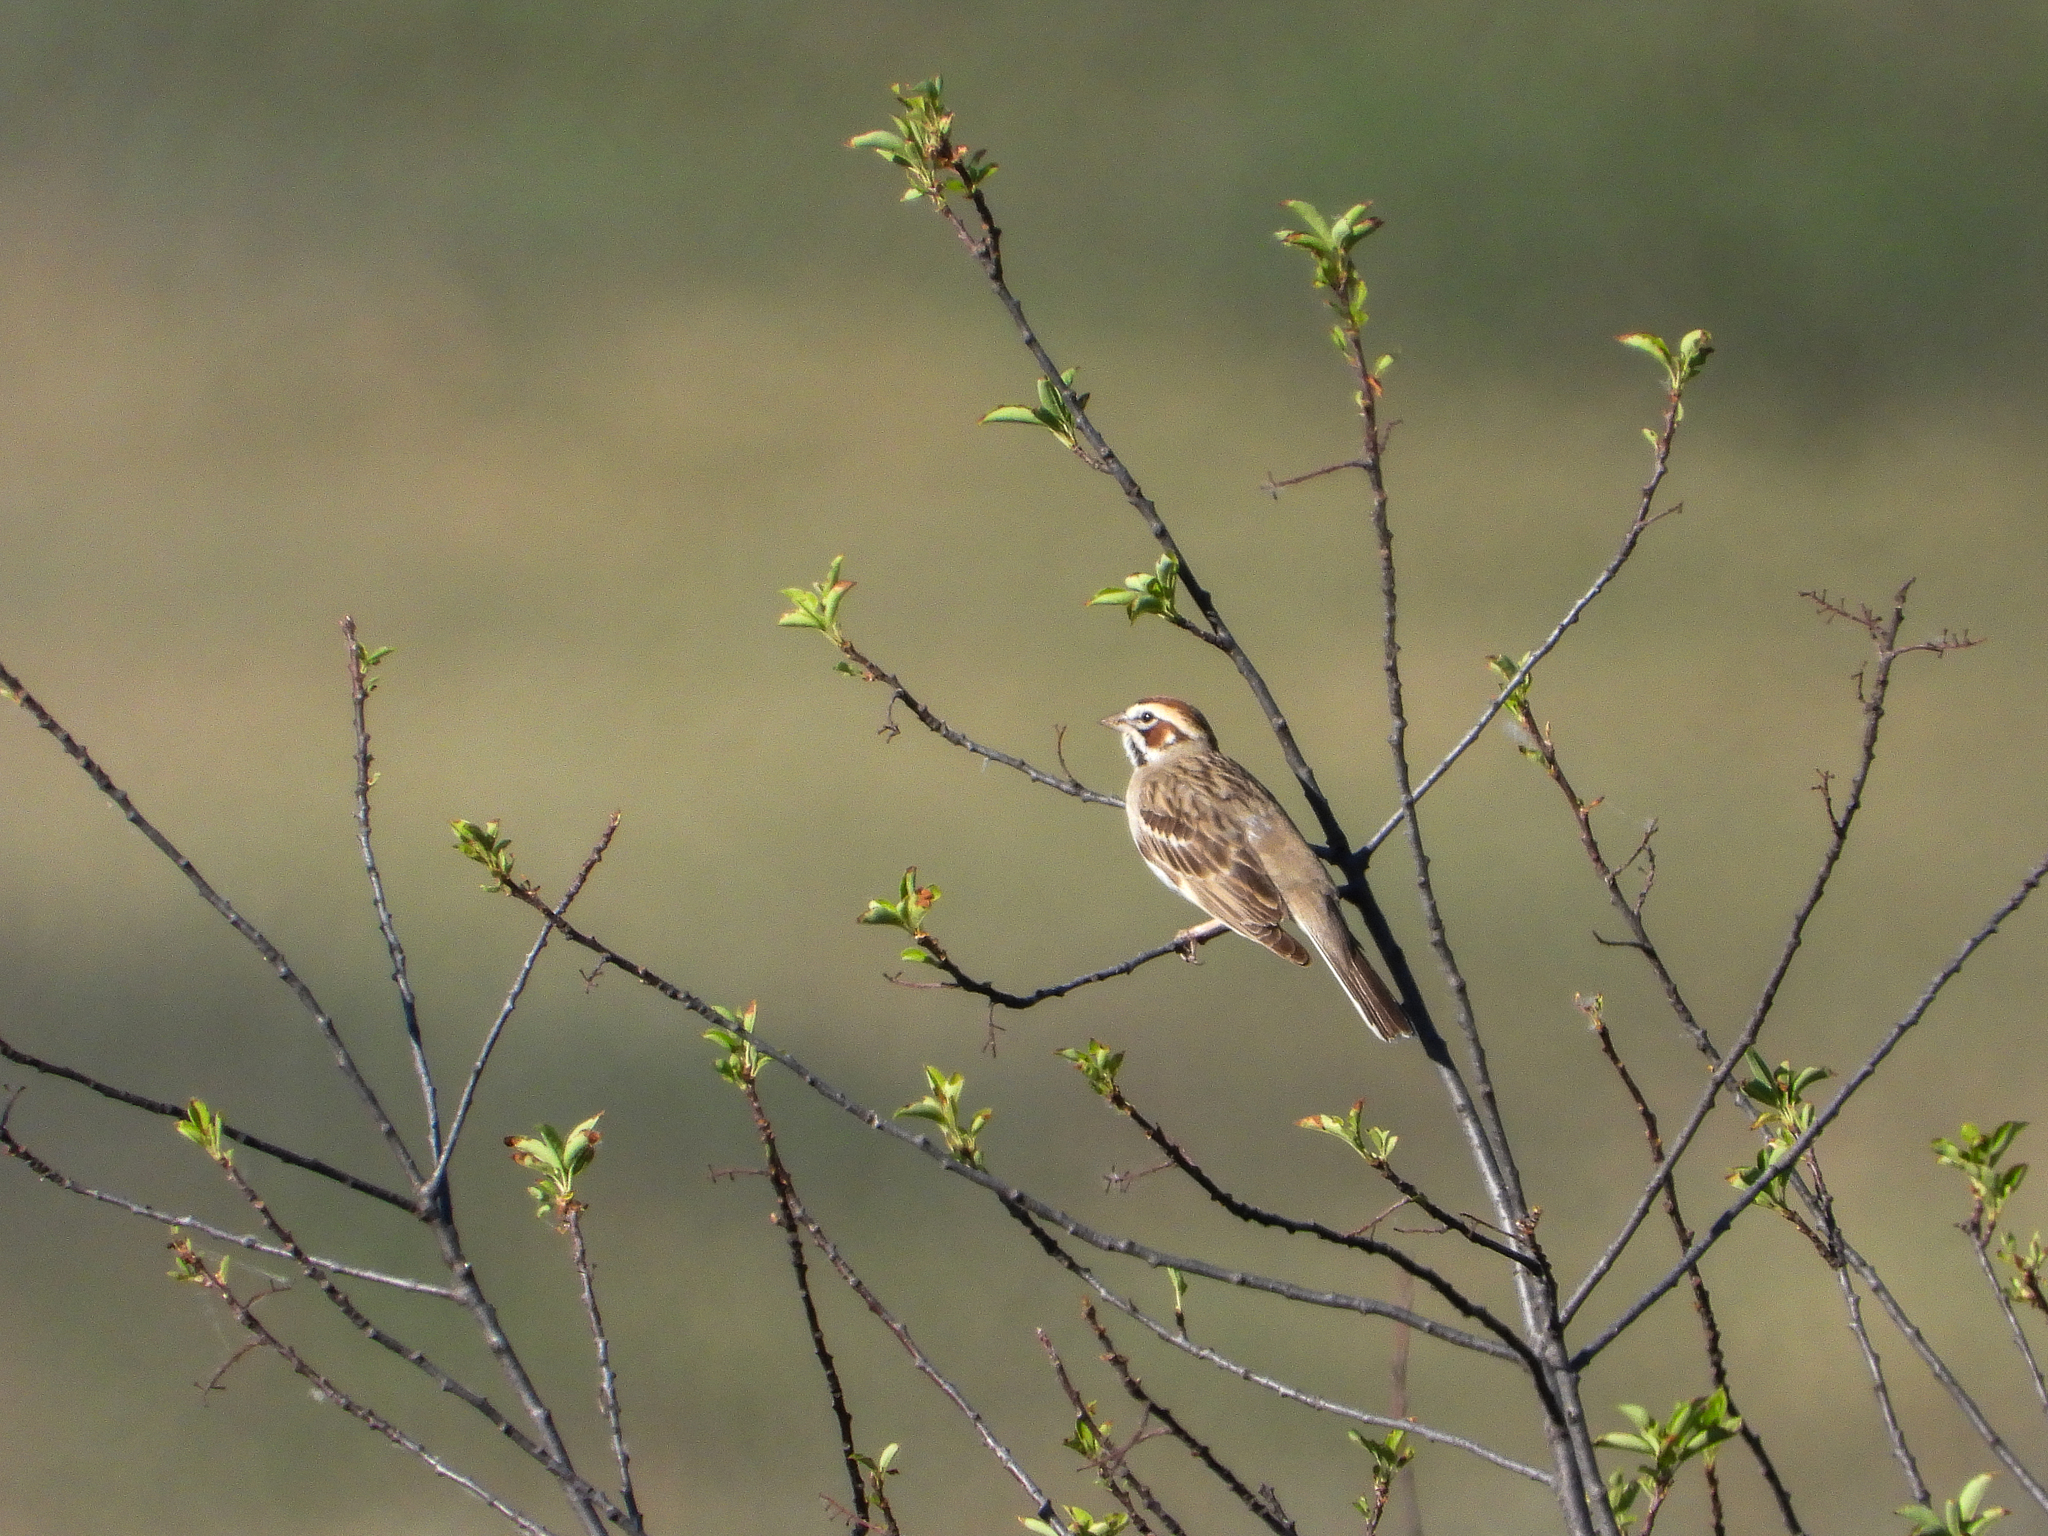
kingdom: Animalia
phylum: Chordata
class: Aves
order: Passeriformes
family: Passerellidae
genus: Chondestes
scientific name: Chondestes grammacus
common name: Lark sparrow
